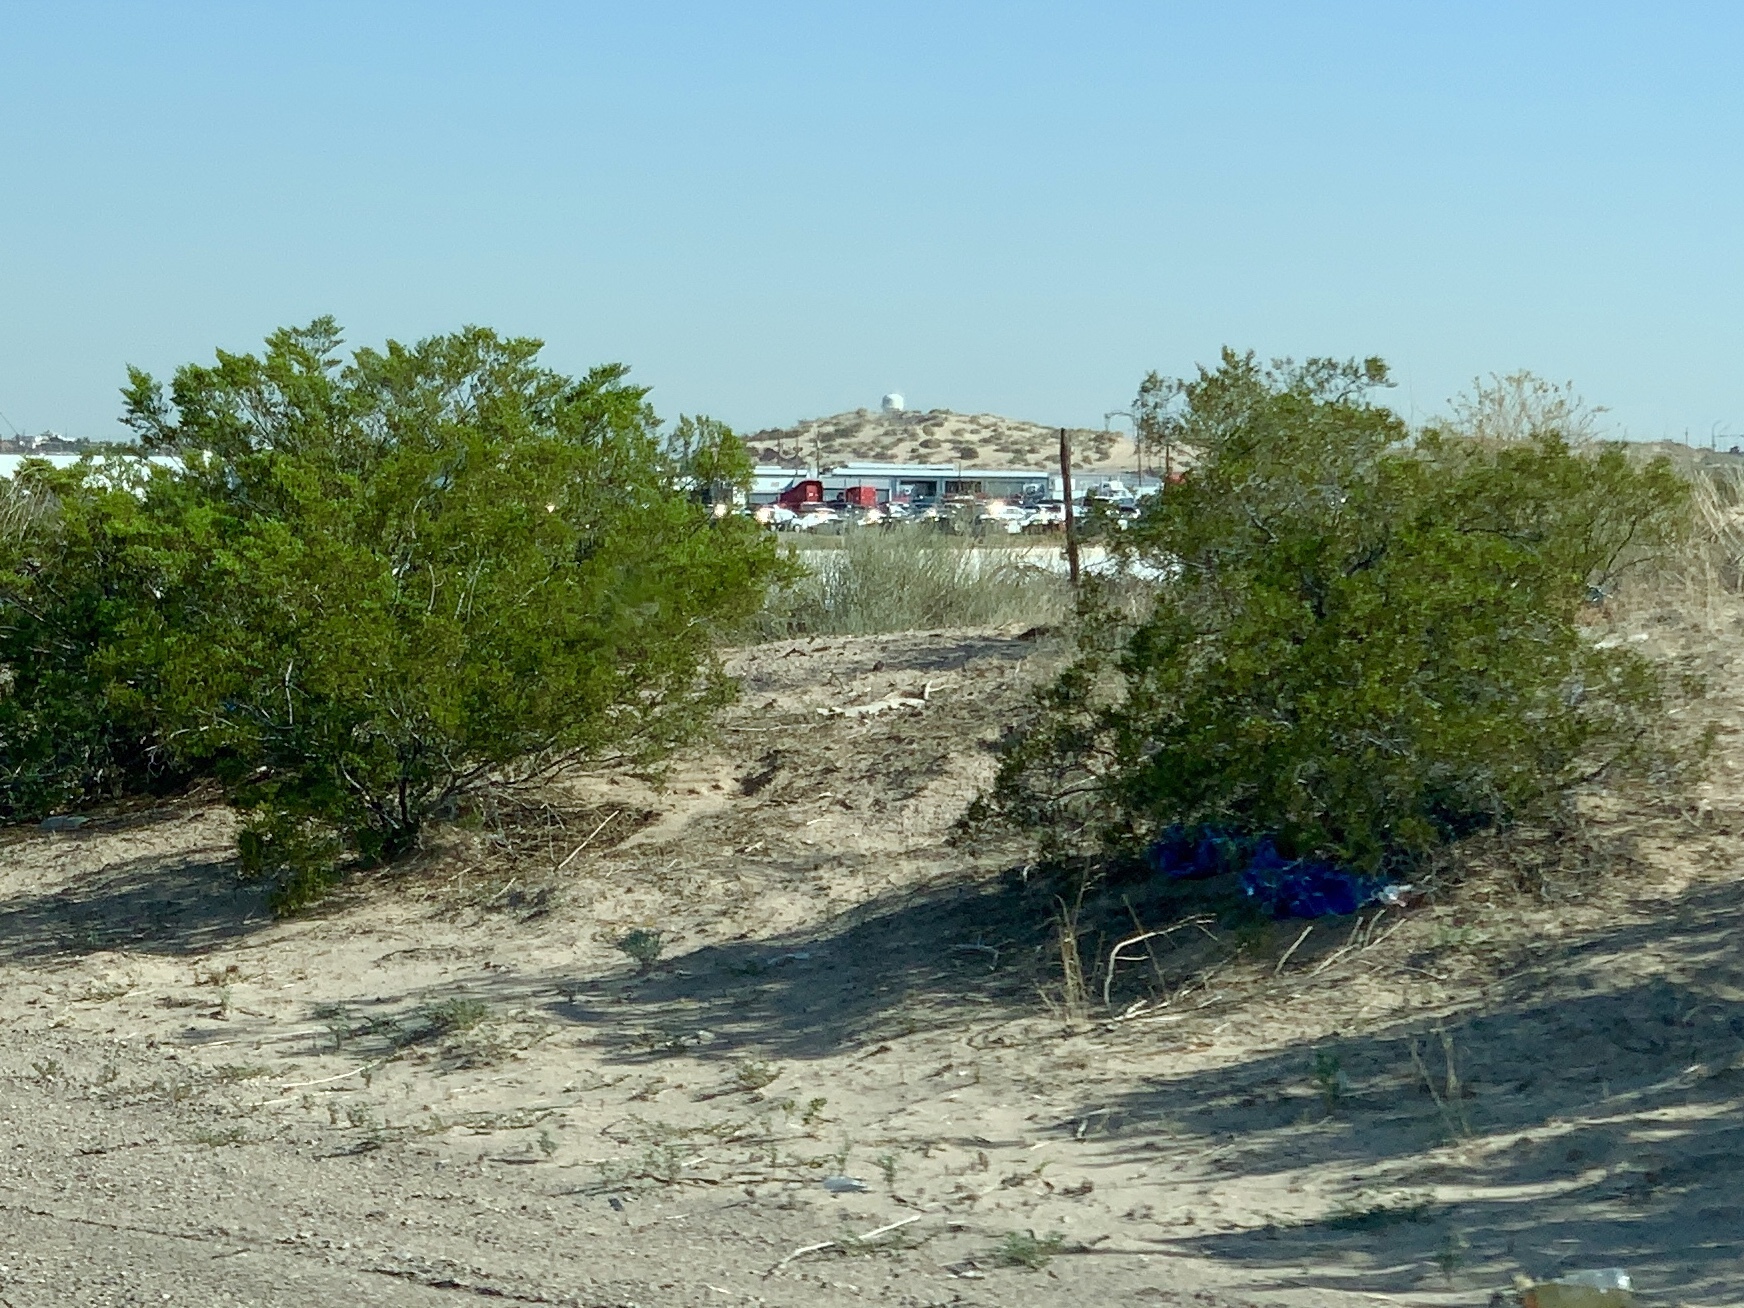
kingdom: Plantae
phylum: Tracheophyta
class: Magnoliopsida
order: Zygophyllales
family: Zygophyllaceae
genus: Larrea
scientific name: Larrea tridentata
